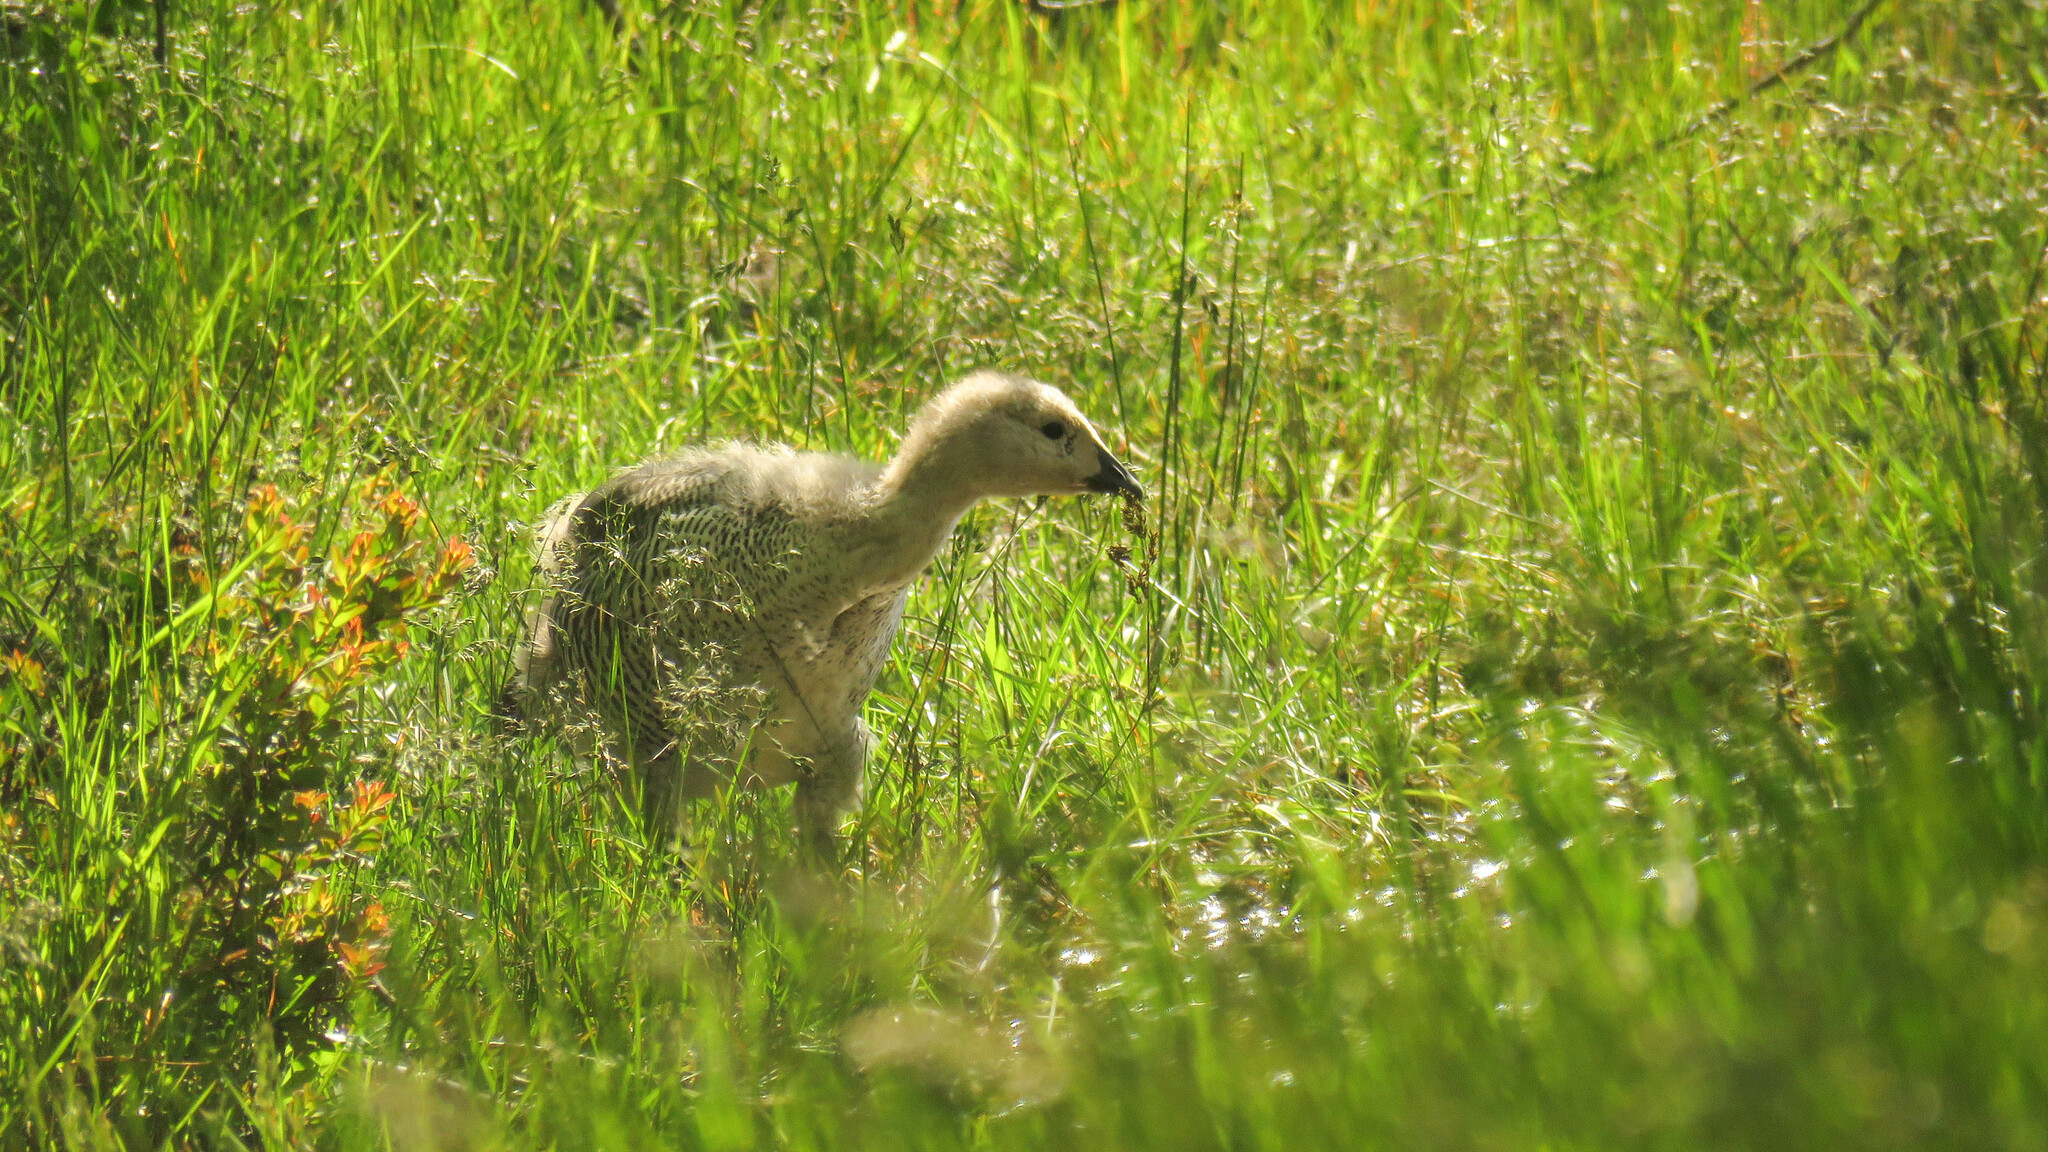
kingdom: Animalia
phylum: Chordata
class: Aves
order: Anseriformes
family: Anatidae
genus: Chloephaga
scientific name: Chloephaga picta
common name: Upland goose
